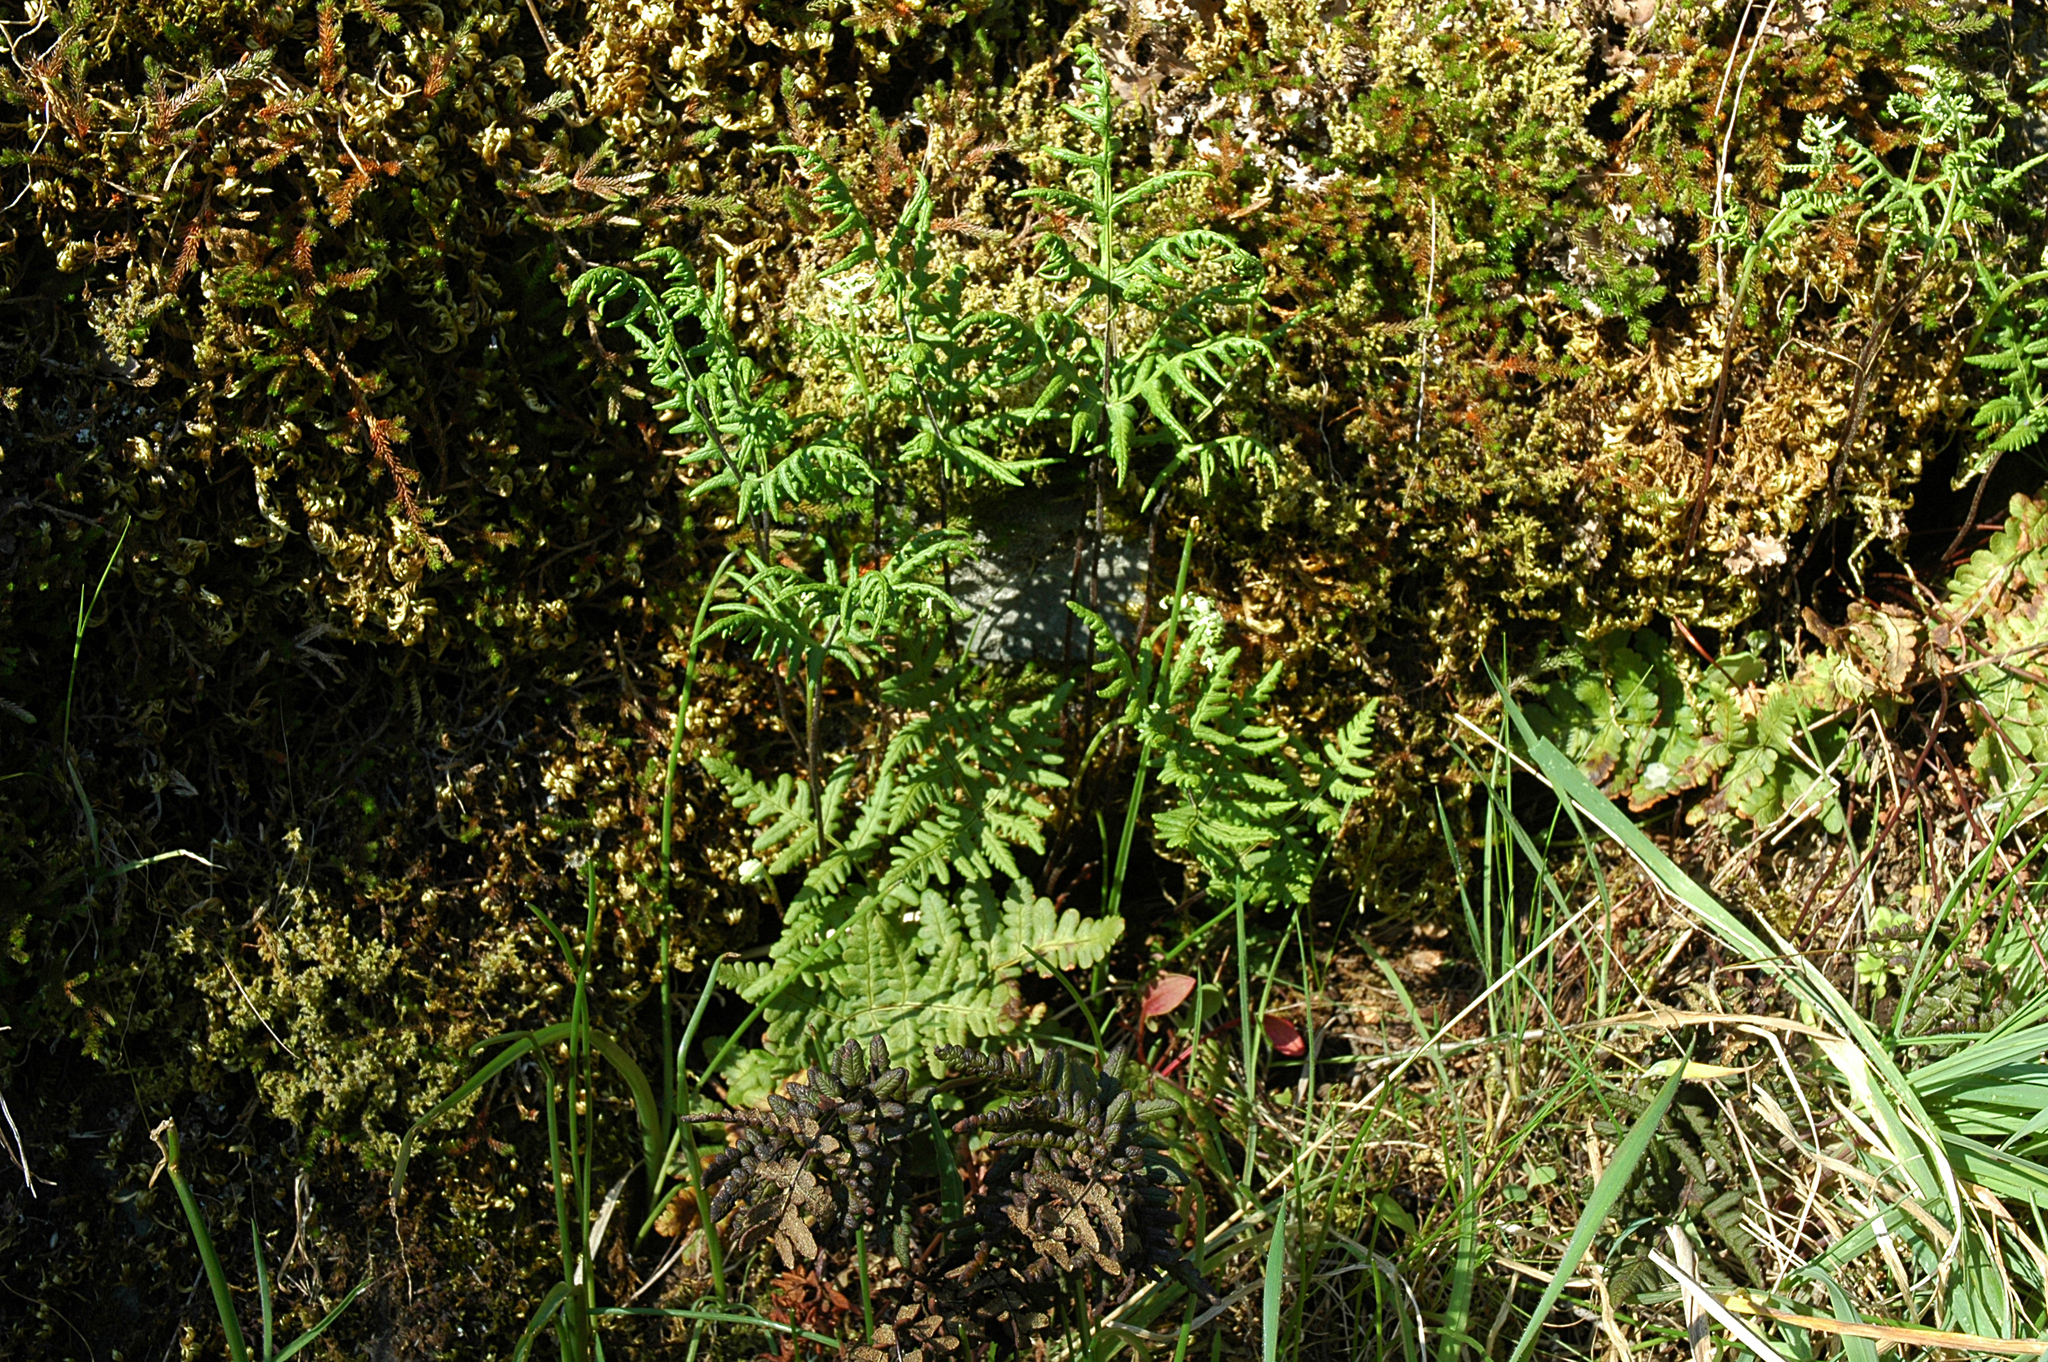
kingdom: Plantae
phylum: Tracheophyta
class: Polypodiopsida
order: Polypodiales
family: Pteridaceae
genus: Pentagramma
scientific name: Pentagramma triangularis
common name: Gold fern
